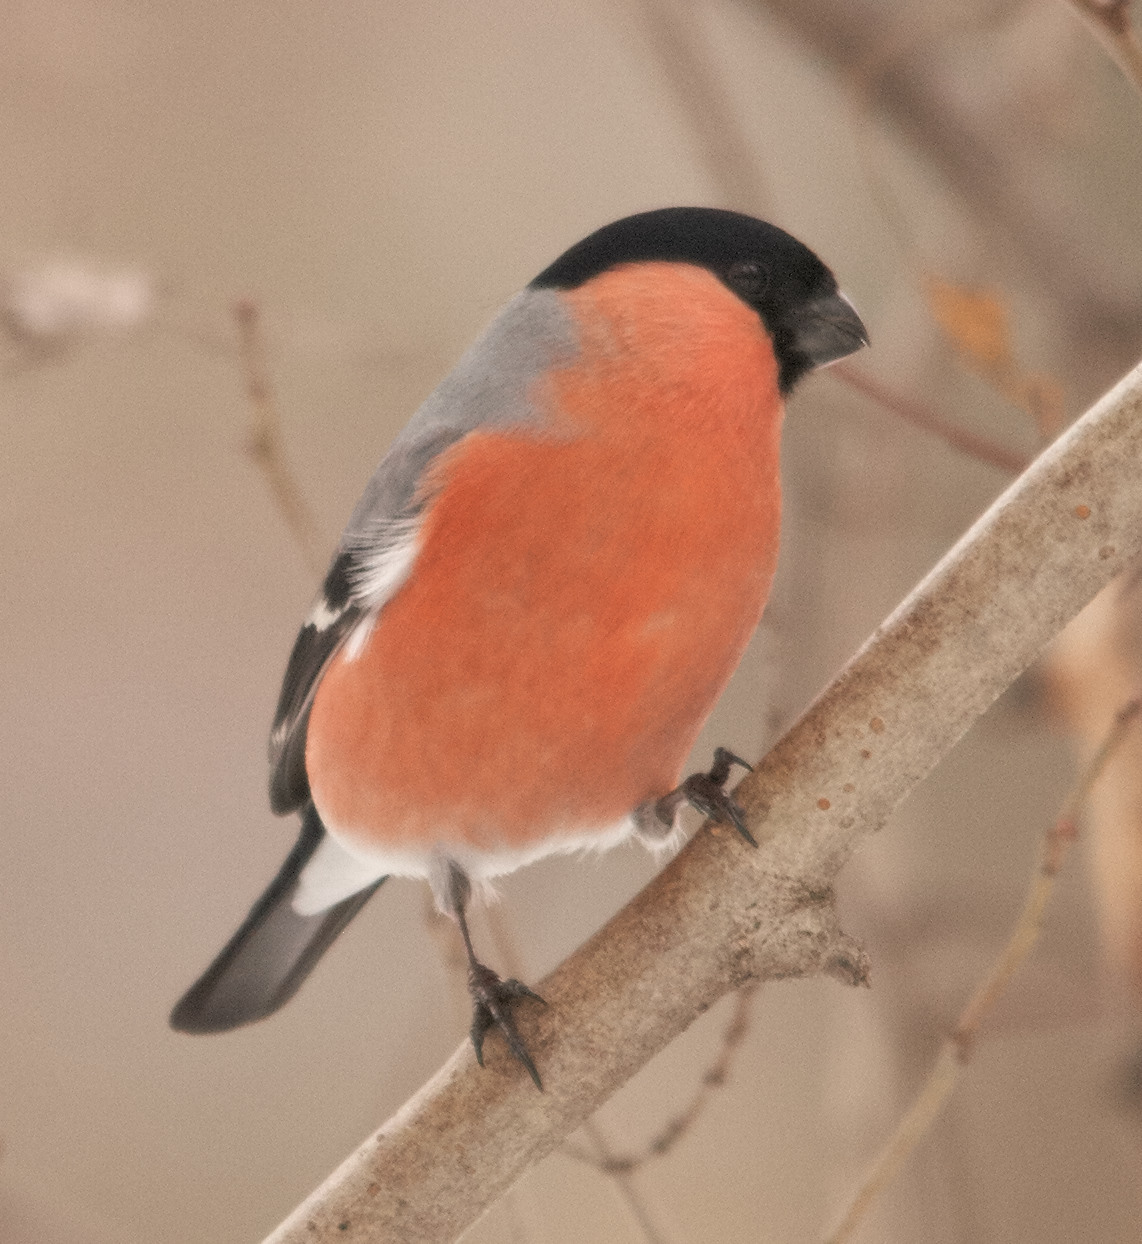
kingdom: Animalia
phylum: Chordata
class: Aves
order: Passeriformes
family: Fringillidae
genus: Pyrrhula
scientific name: Pyrrhula pyrrhula
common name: Eurasian bullfinch
